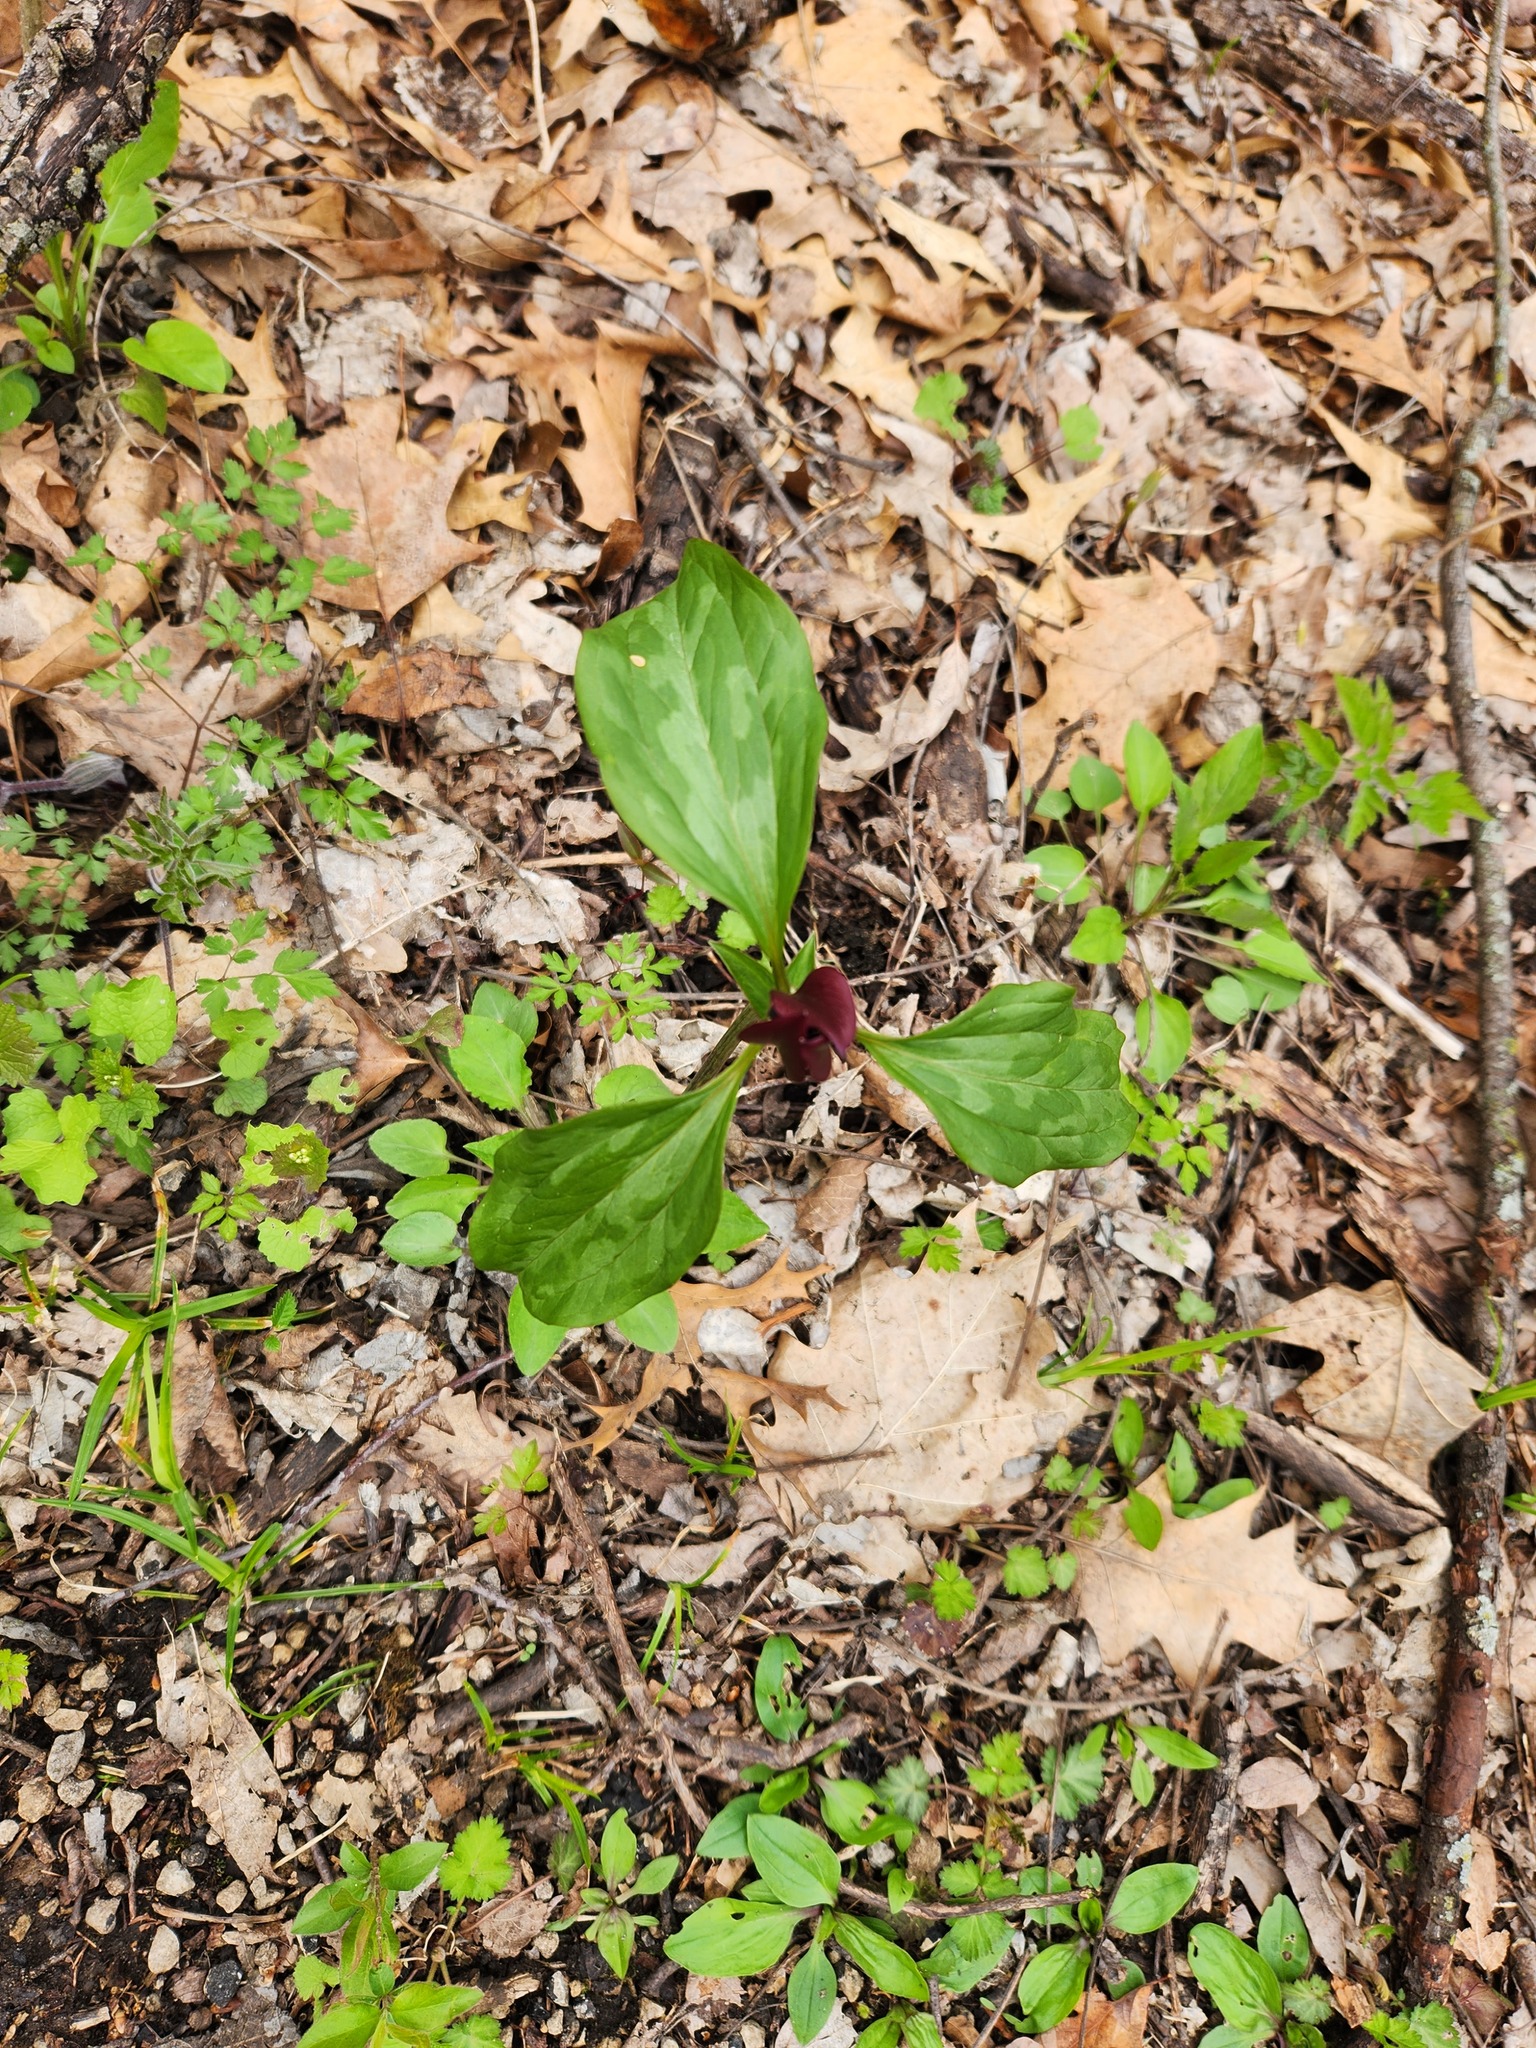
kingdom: Plantae
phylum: Tracheophyta
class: Liliopsida
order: Liliales
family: Melanthiaceae
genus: Trillium
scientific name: Trillium recurvatum
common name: Bloody butcher
